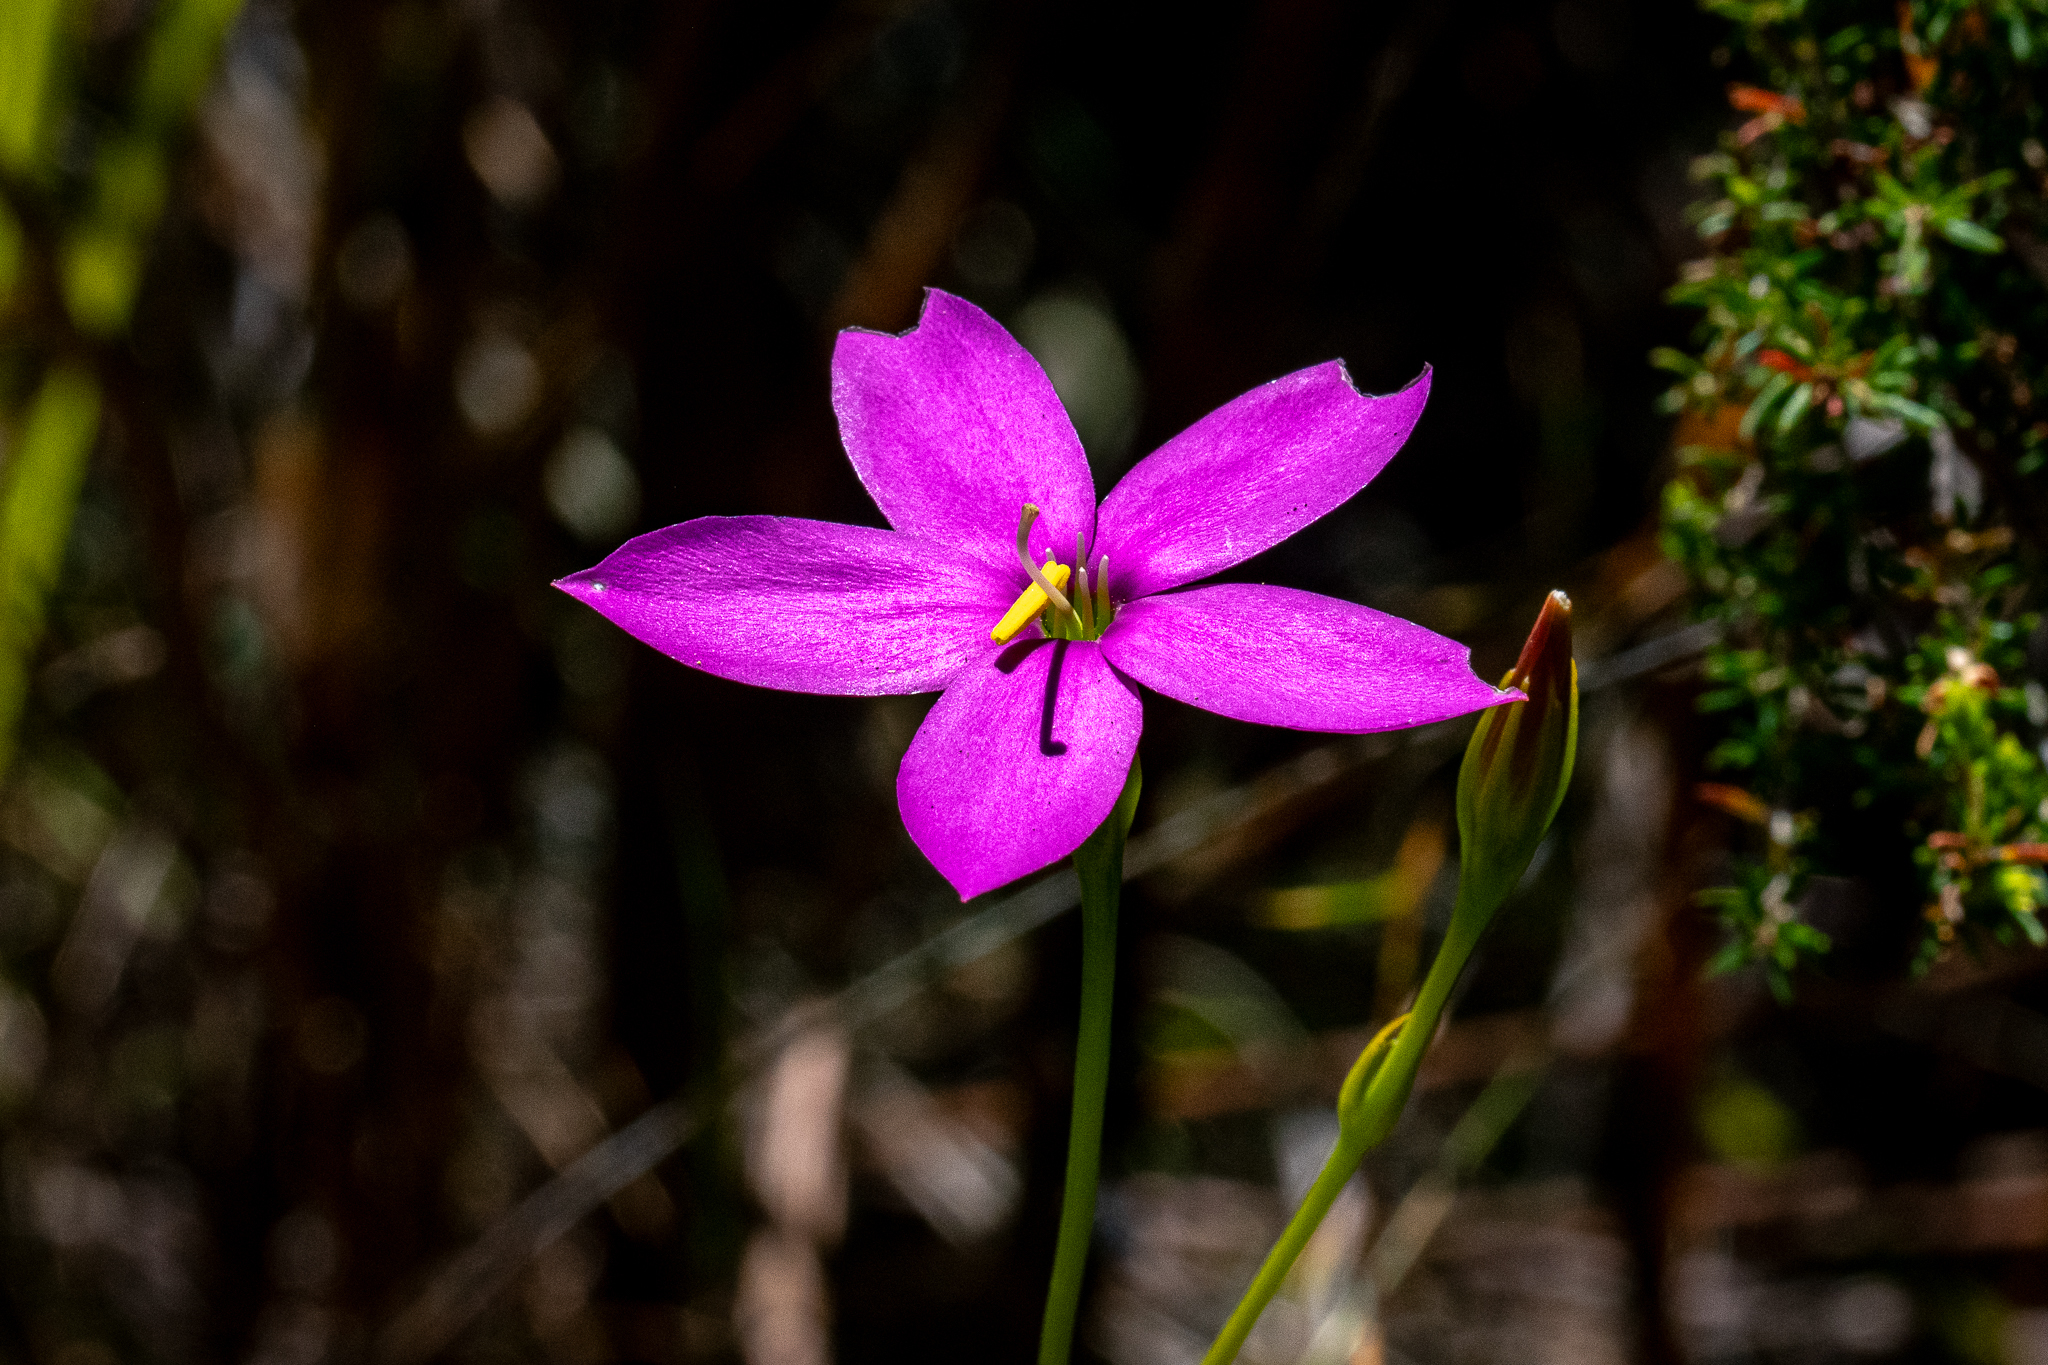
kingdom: Plantae
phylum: Tracheophyta
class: Magnoliopsida
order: Gentianales
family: Gentianaceae
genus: Chironia
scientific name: Chironia jasminoides
